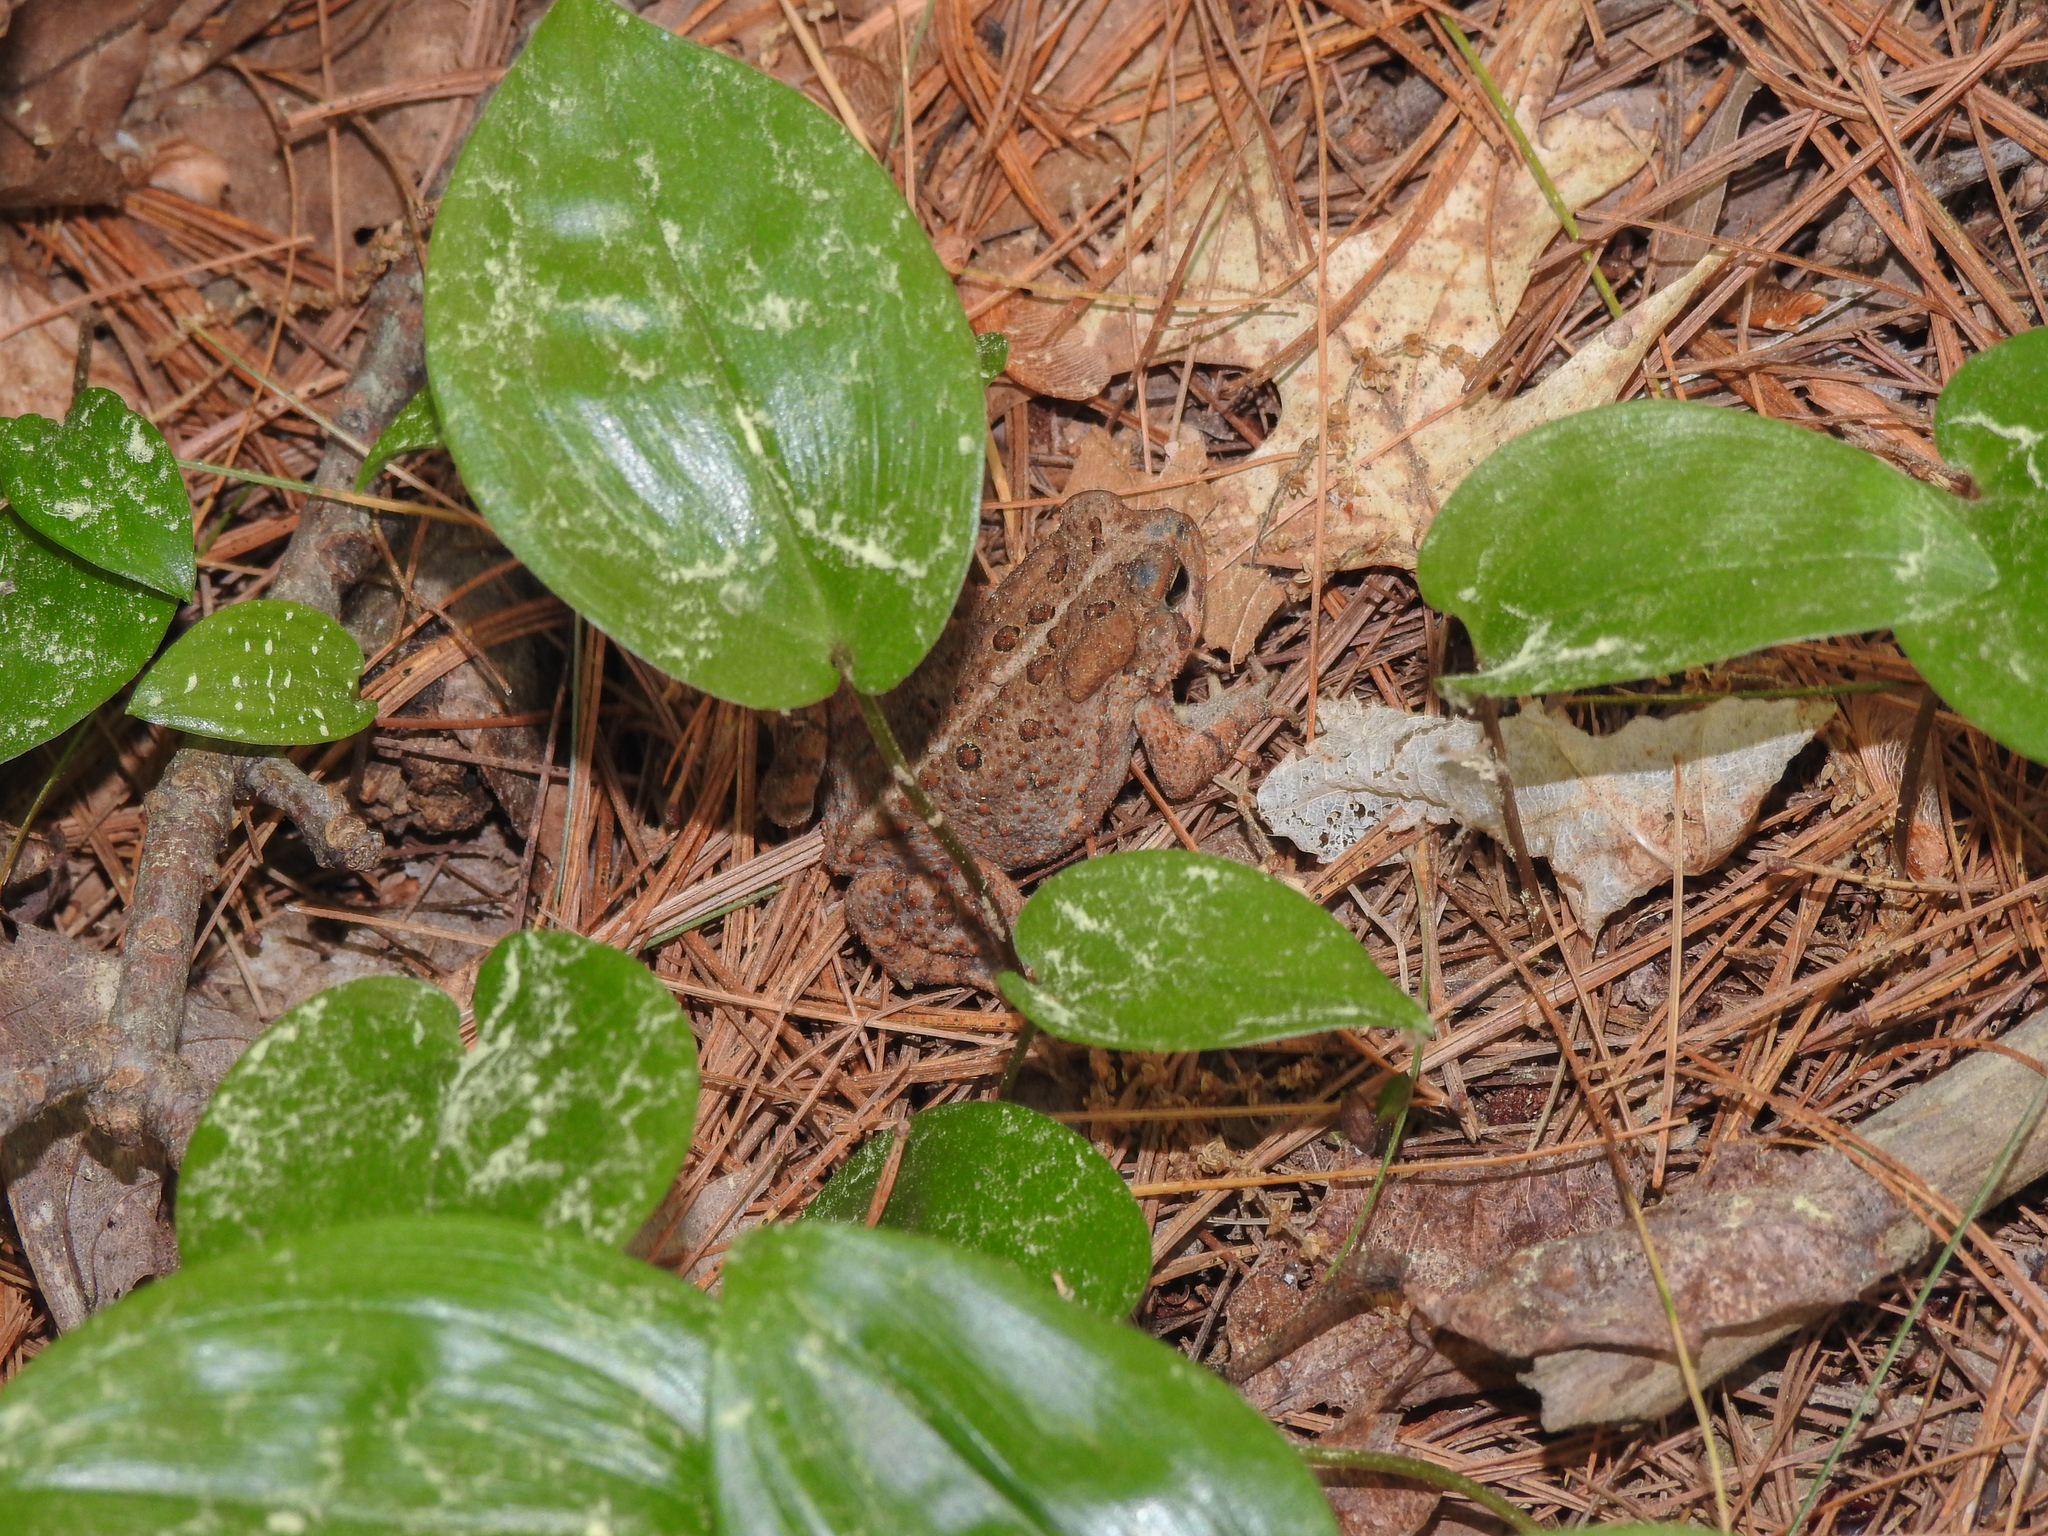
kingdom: Animalia
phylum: Chordata
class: Amphibia
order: Anura
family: Bufonidae
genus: Anaxyrus
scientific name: Anaxyrus americanus
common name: American toad
